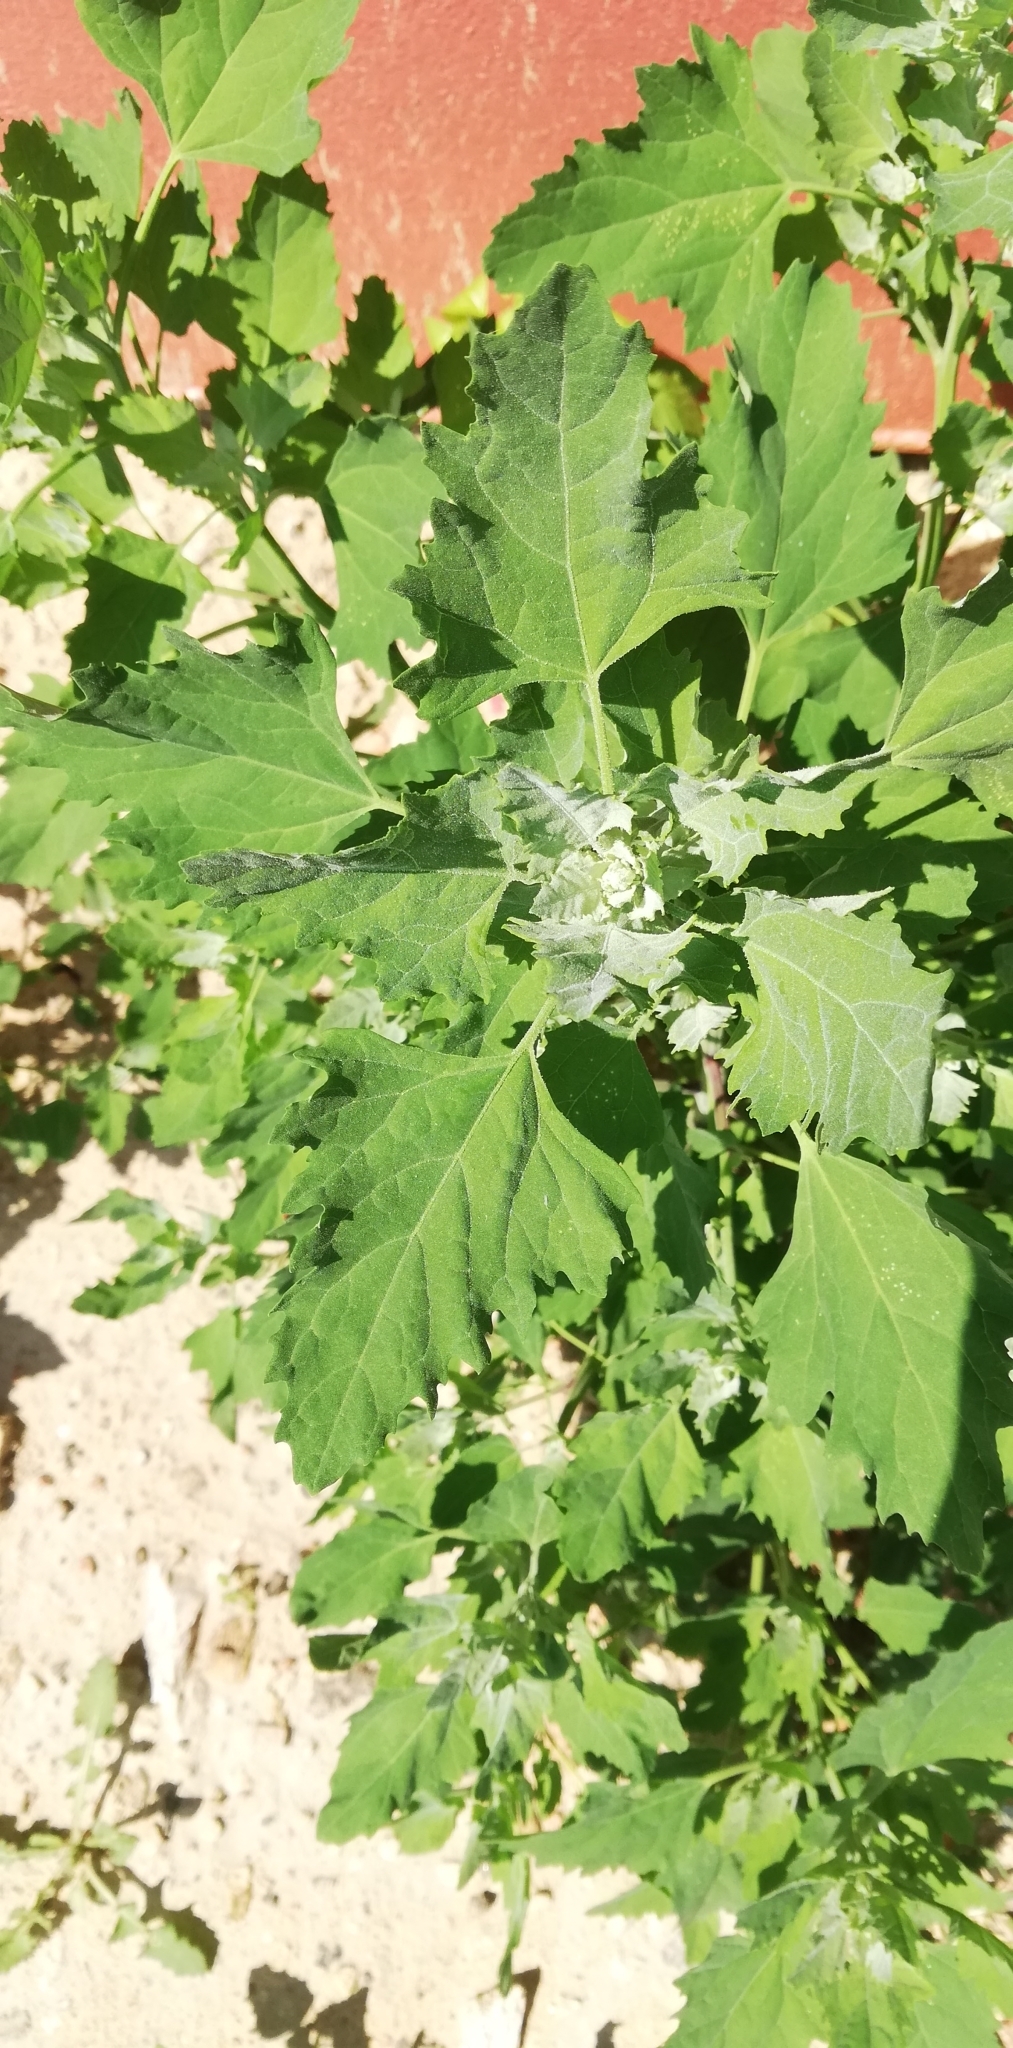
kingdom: Plantae
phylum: Tracheophyta
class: Magnoliopsida
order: Caryophyllales
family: Amaranthaceae
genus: Chenopodium
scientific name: Chenopodium album
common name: Fat-hen
